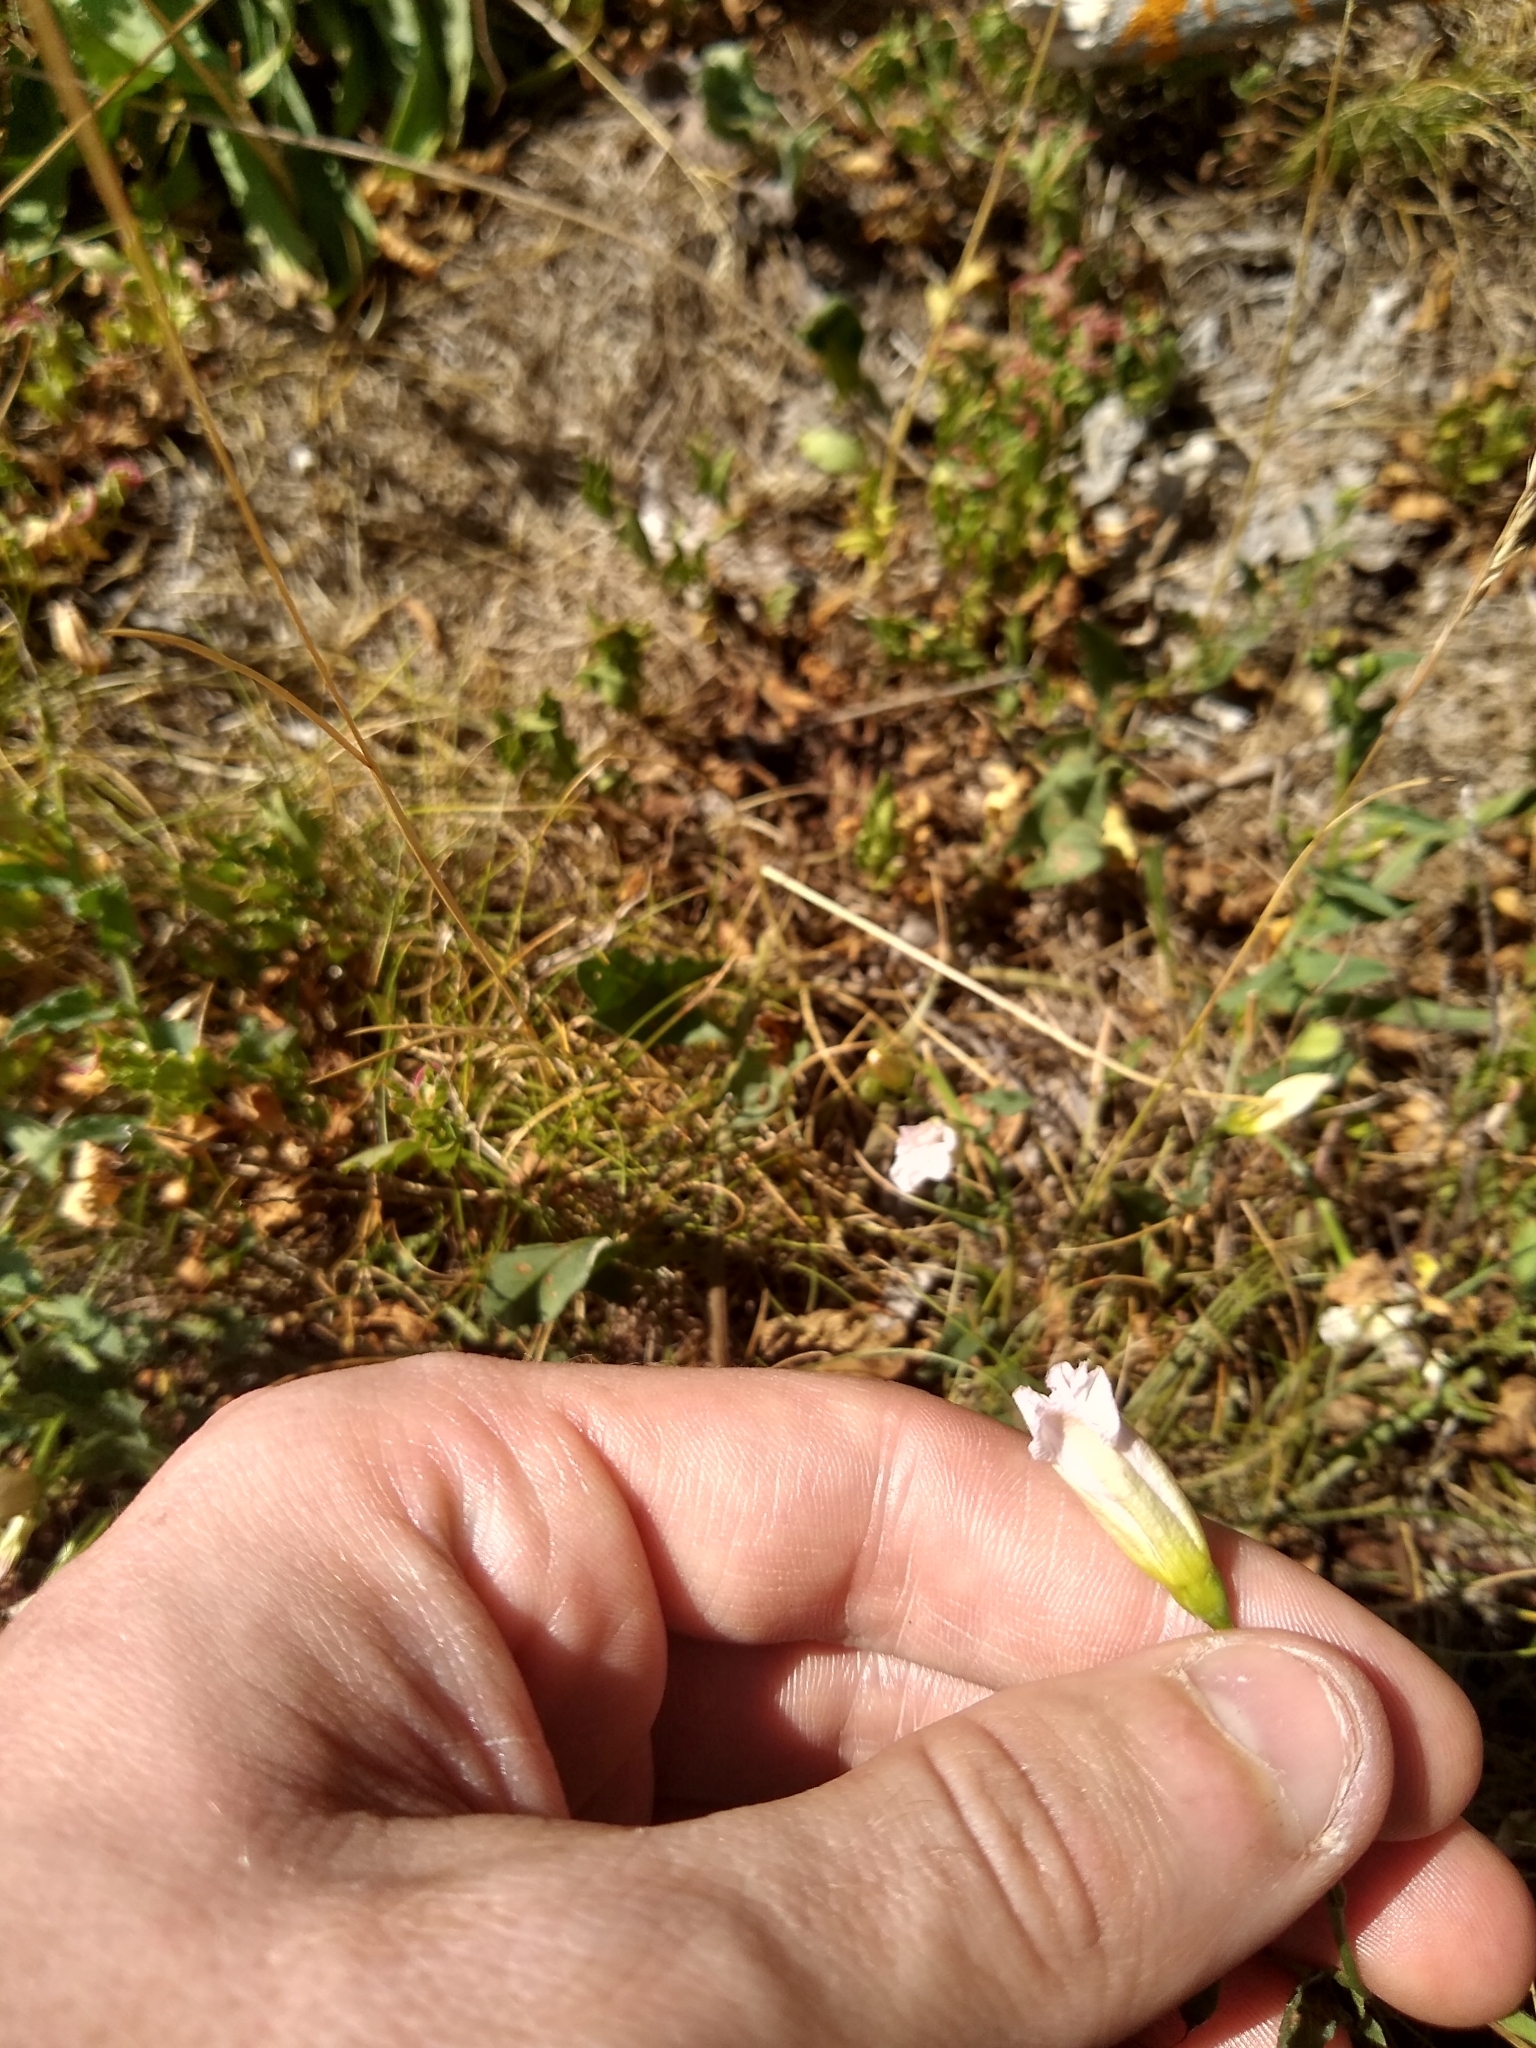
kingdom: Plantae
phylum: Tracheophyta
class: Magnoliopsida
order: Solanales
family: Convolvulaceae
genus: Convolvulus
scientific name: Convolvulus arvensis
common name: Field bindweed
